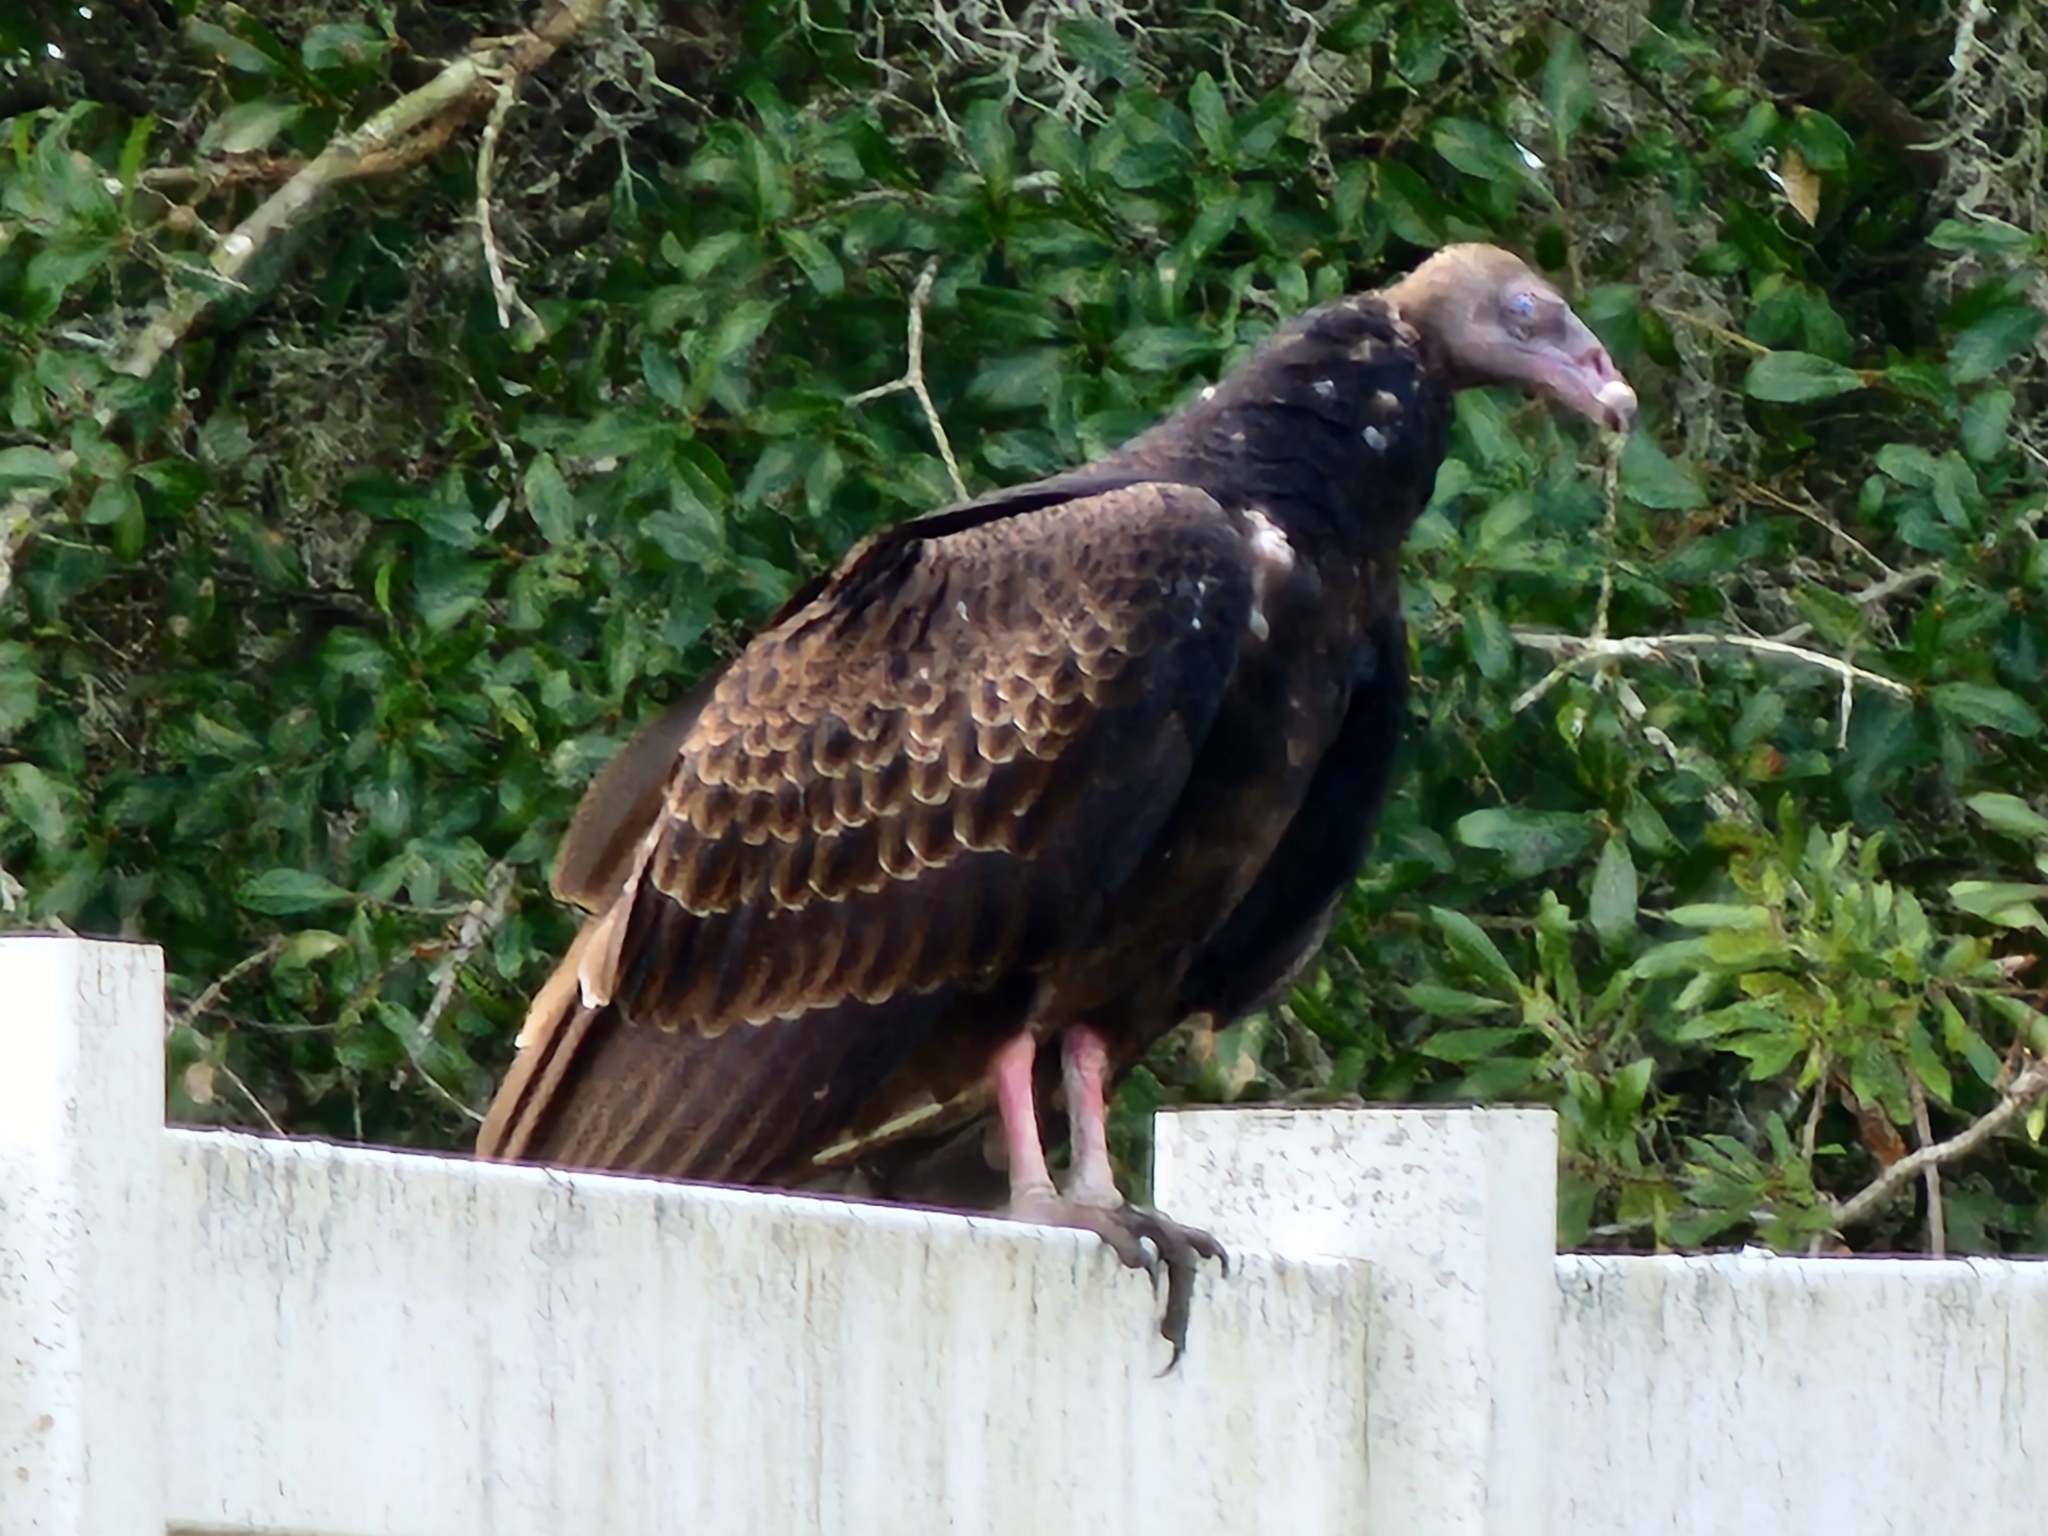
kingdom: Animalia
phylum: Chordata
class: Aves
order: Accipitriformes
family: Cathartidae
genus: Cathartes
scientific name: Cathartes aura
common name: Turkey vulture
